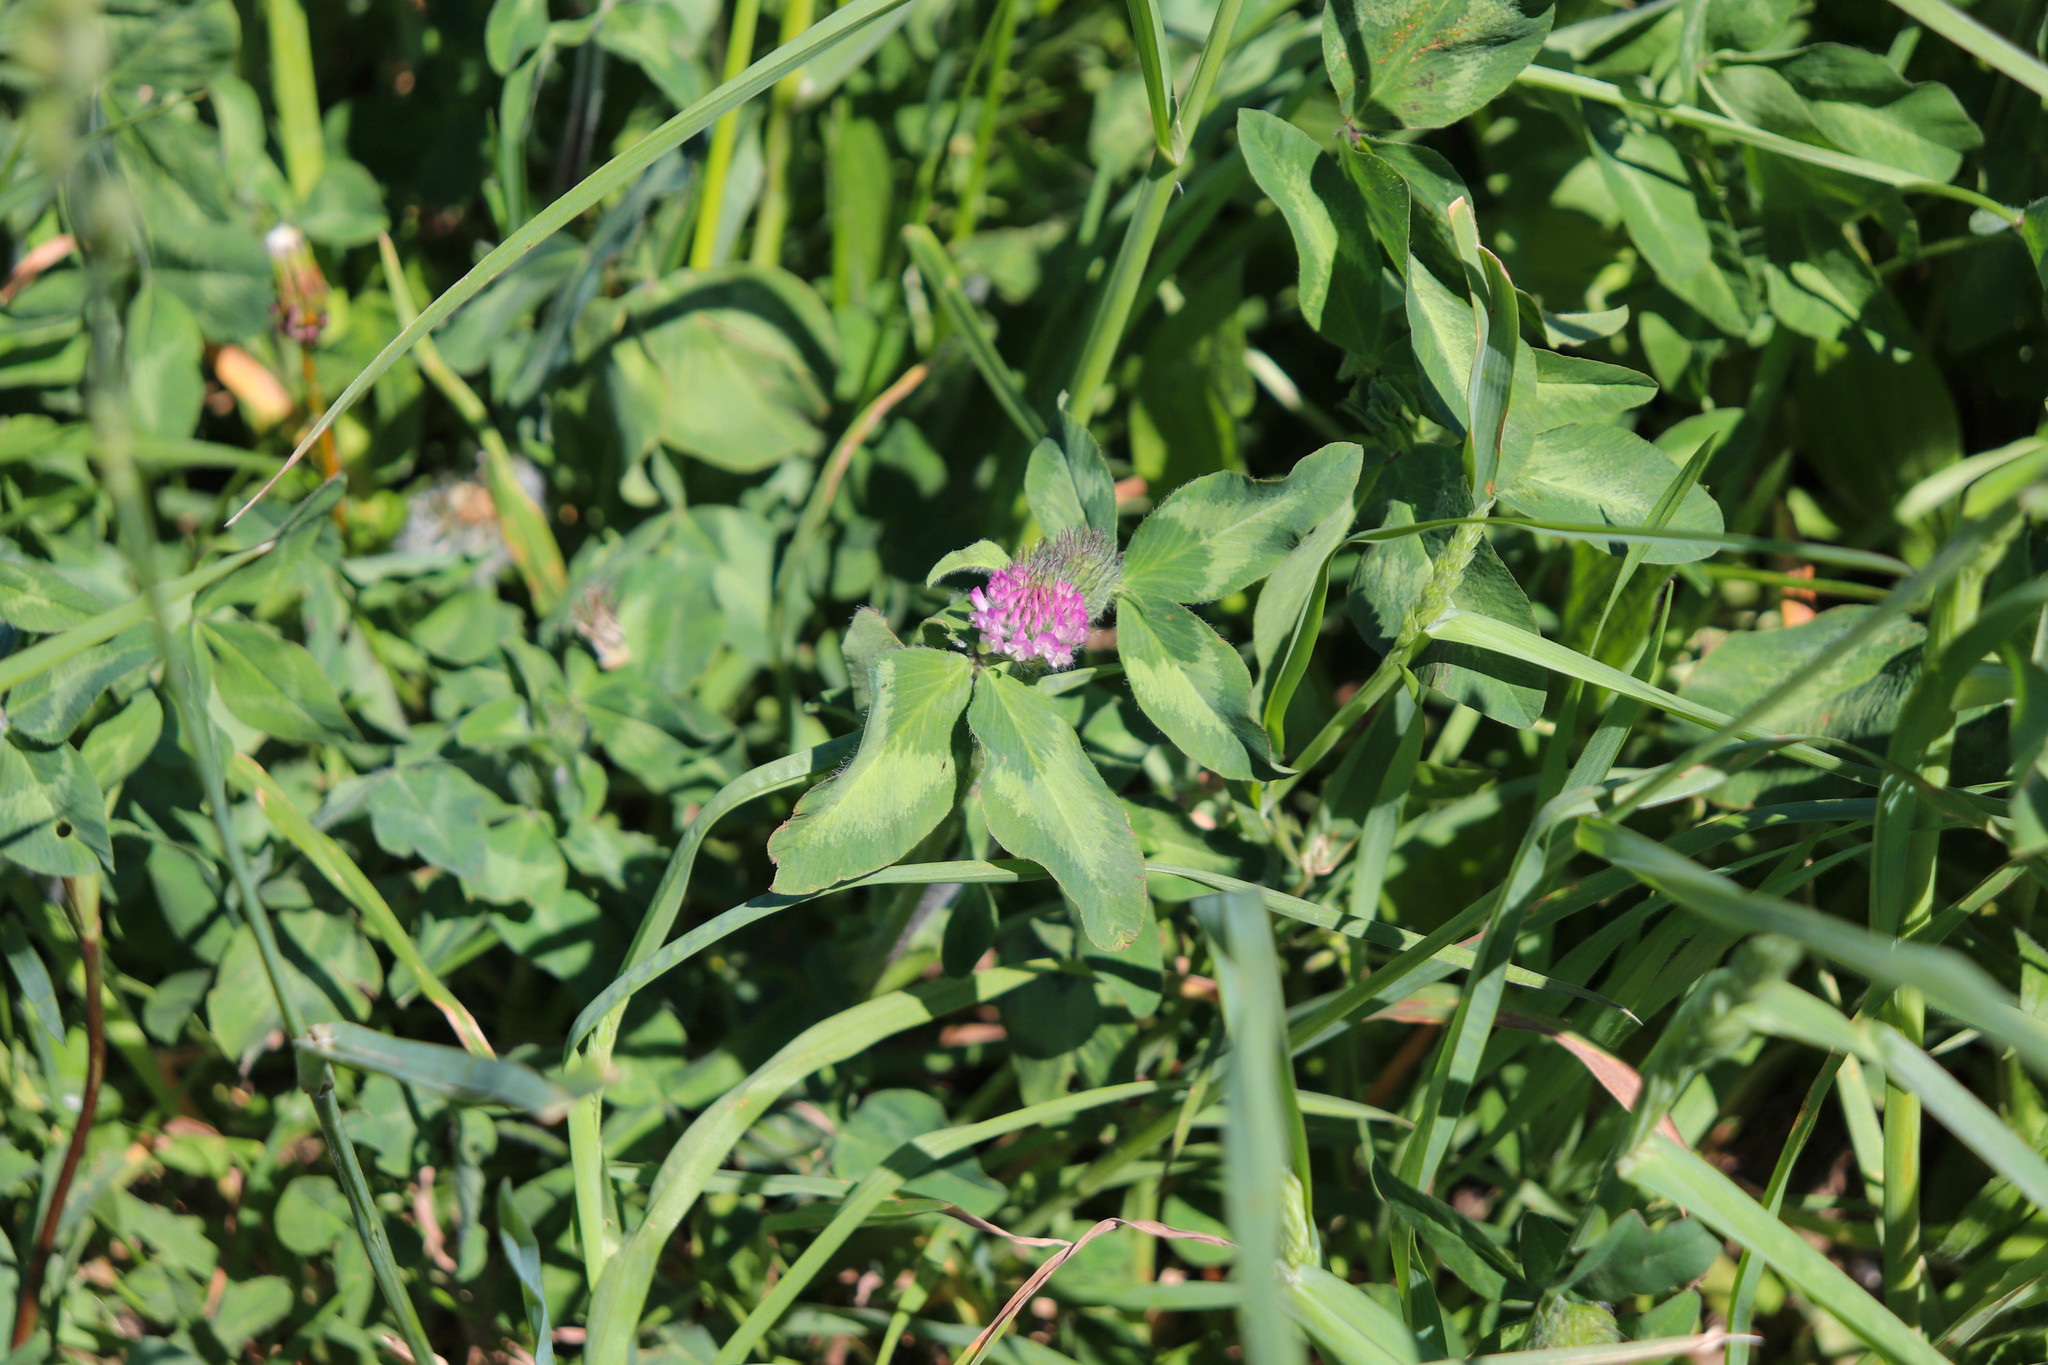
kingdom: Plantae
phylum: Tracheophyta
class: Magnoliopsida
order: Fabales
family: Fabaceae
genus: Trifolium
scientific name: Trifolium pratense
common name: Red clover
